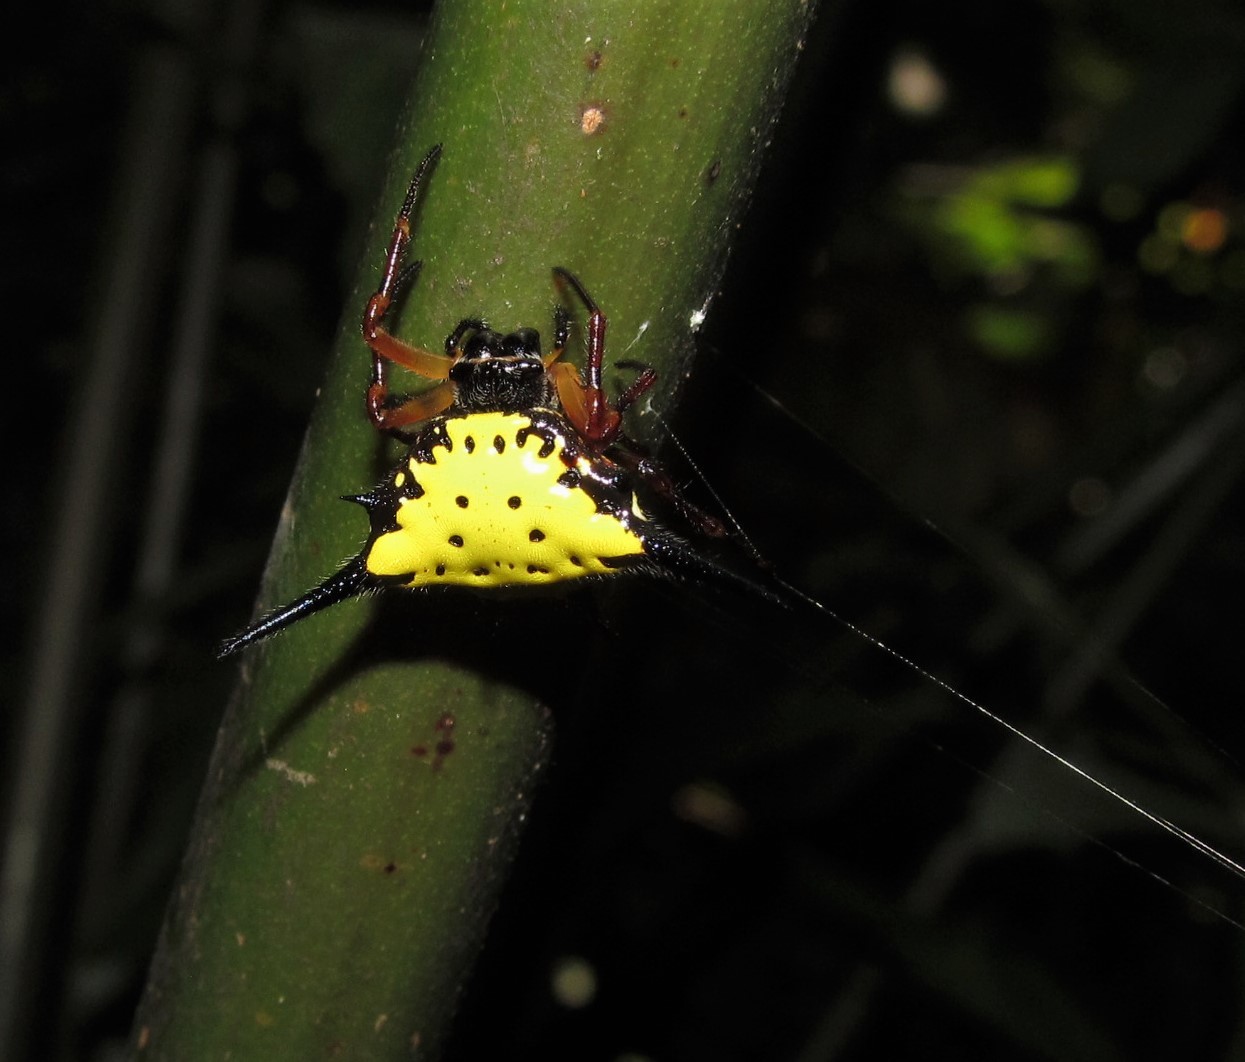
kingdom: Animalia
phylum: Arthropoda
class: Arachnida
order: Araneae
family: Araneidae
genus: Macracantha
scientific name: Macracantha hasselti
